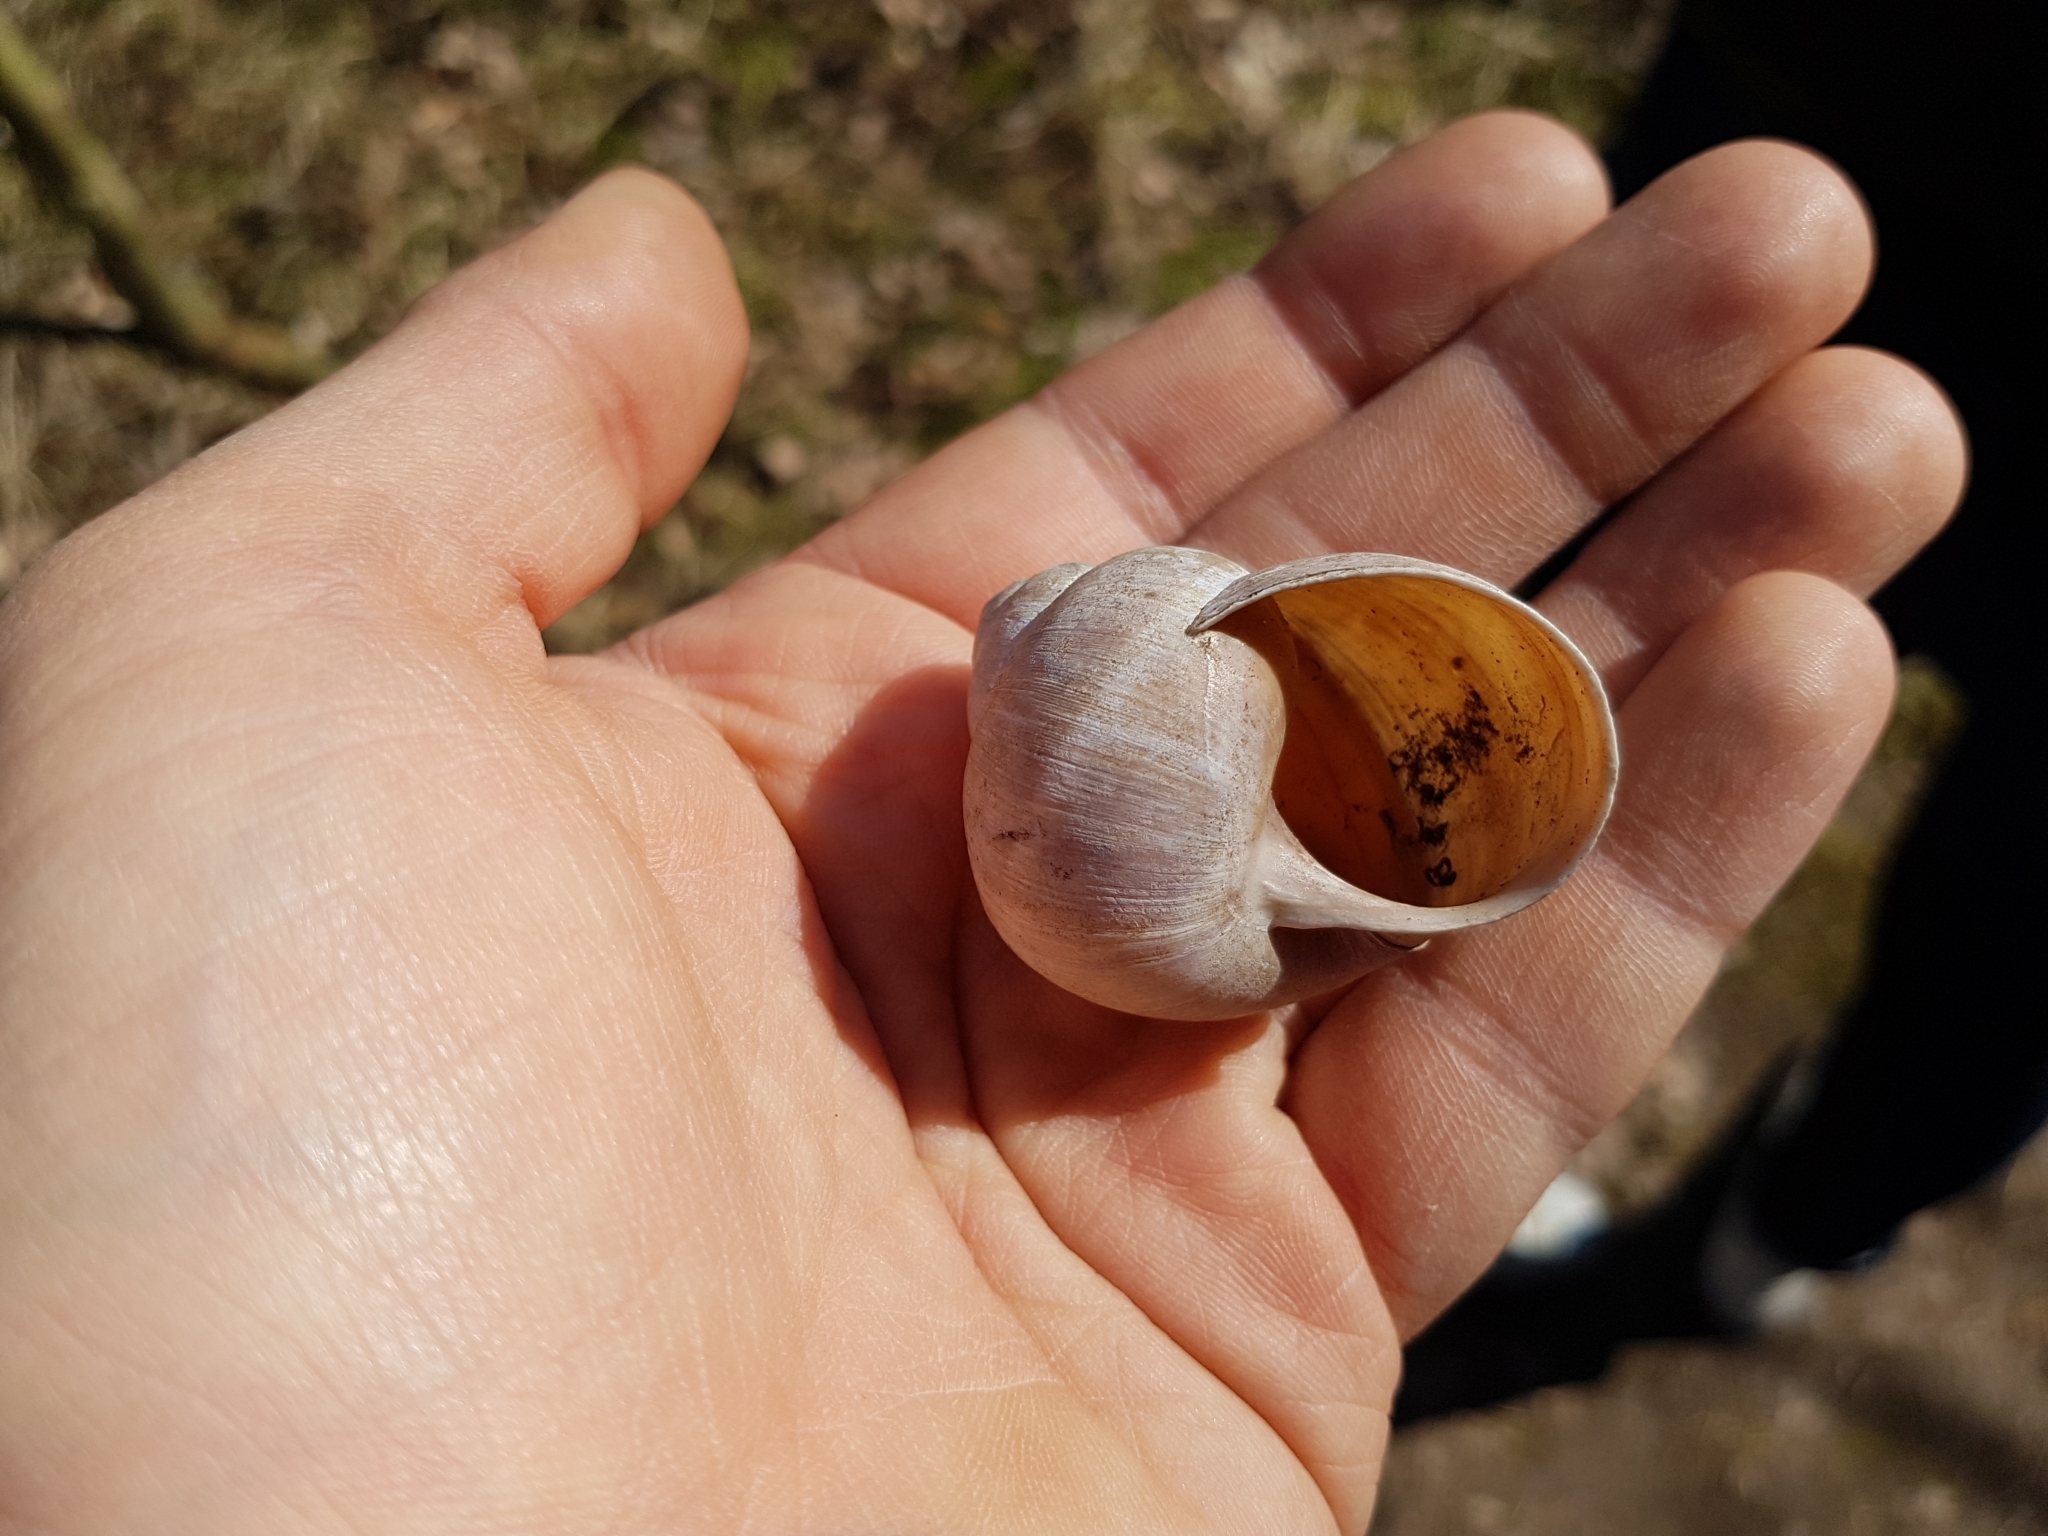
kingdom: Animalia
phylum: Mollusca
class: Gastropoda
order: Stylommatophora
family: Helicidae
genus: Helix
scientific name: Helix pomatia
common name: Roman snail
